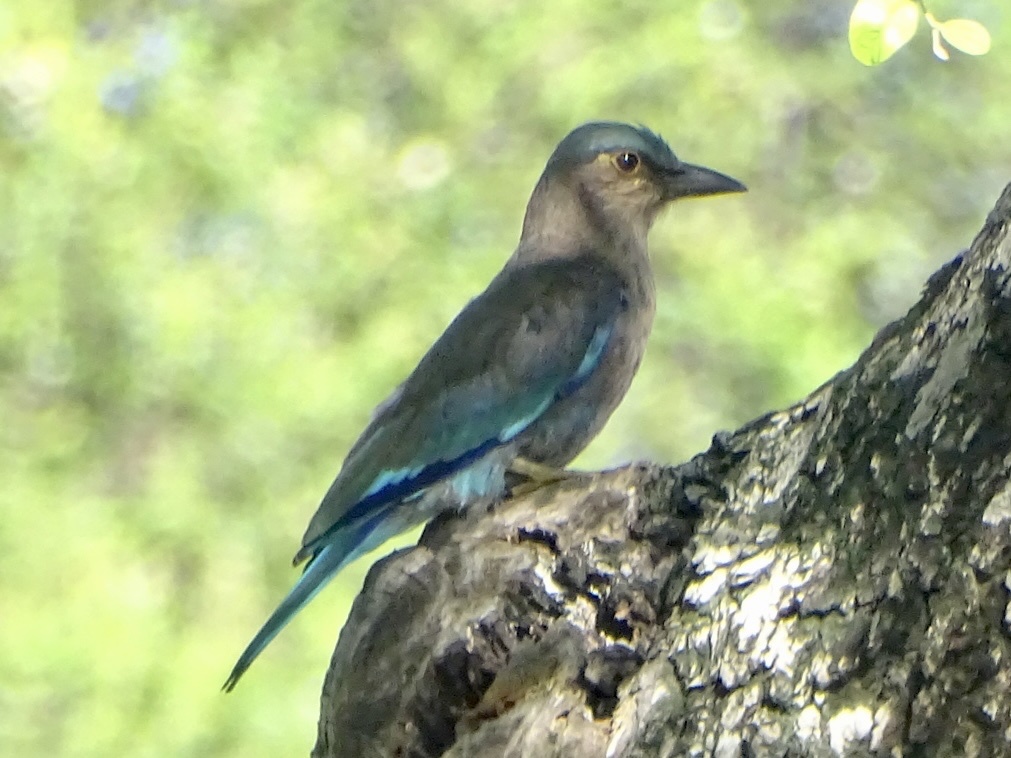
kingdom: Animalia
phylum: Chordata
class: Aves
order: Coraciiformes
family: Coraciidae
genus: Coracias
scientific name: Coracias affinis
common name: Indochinese roller
